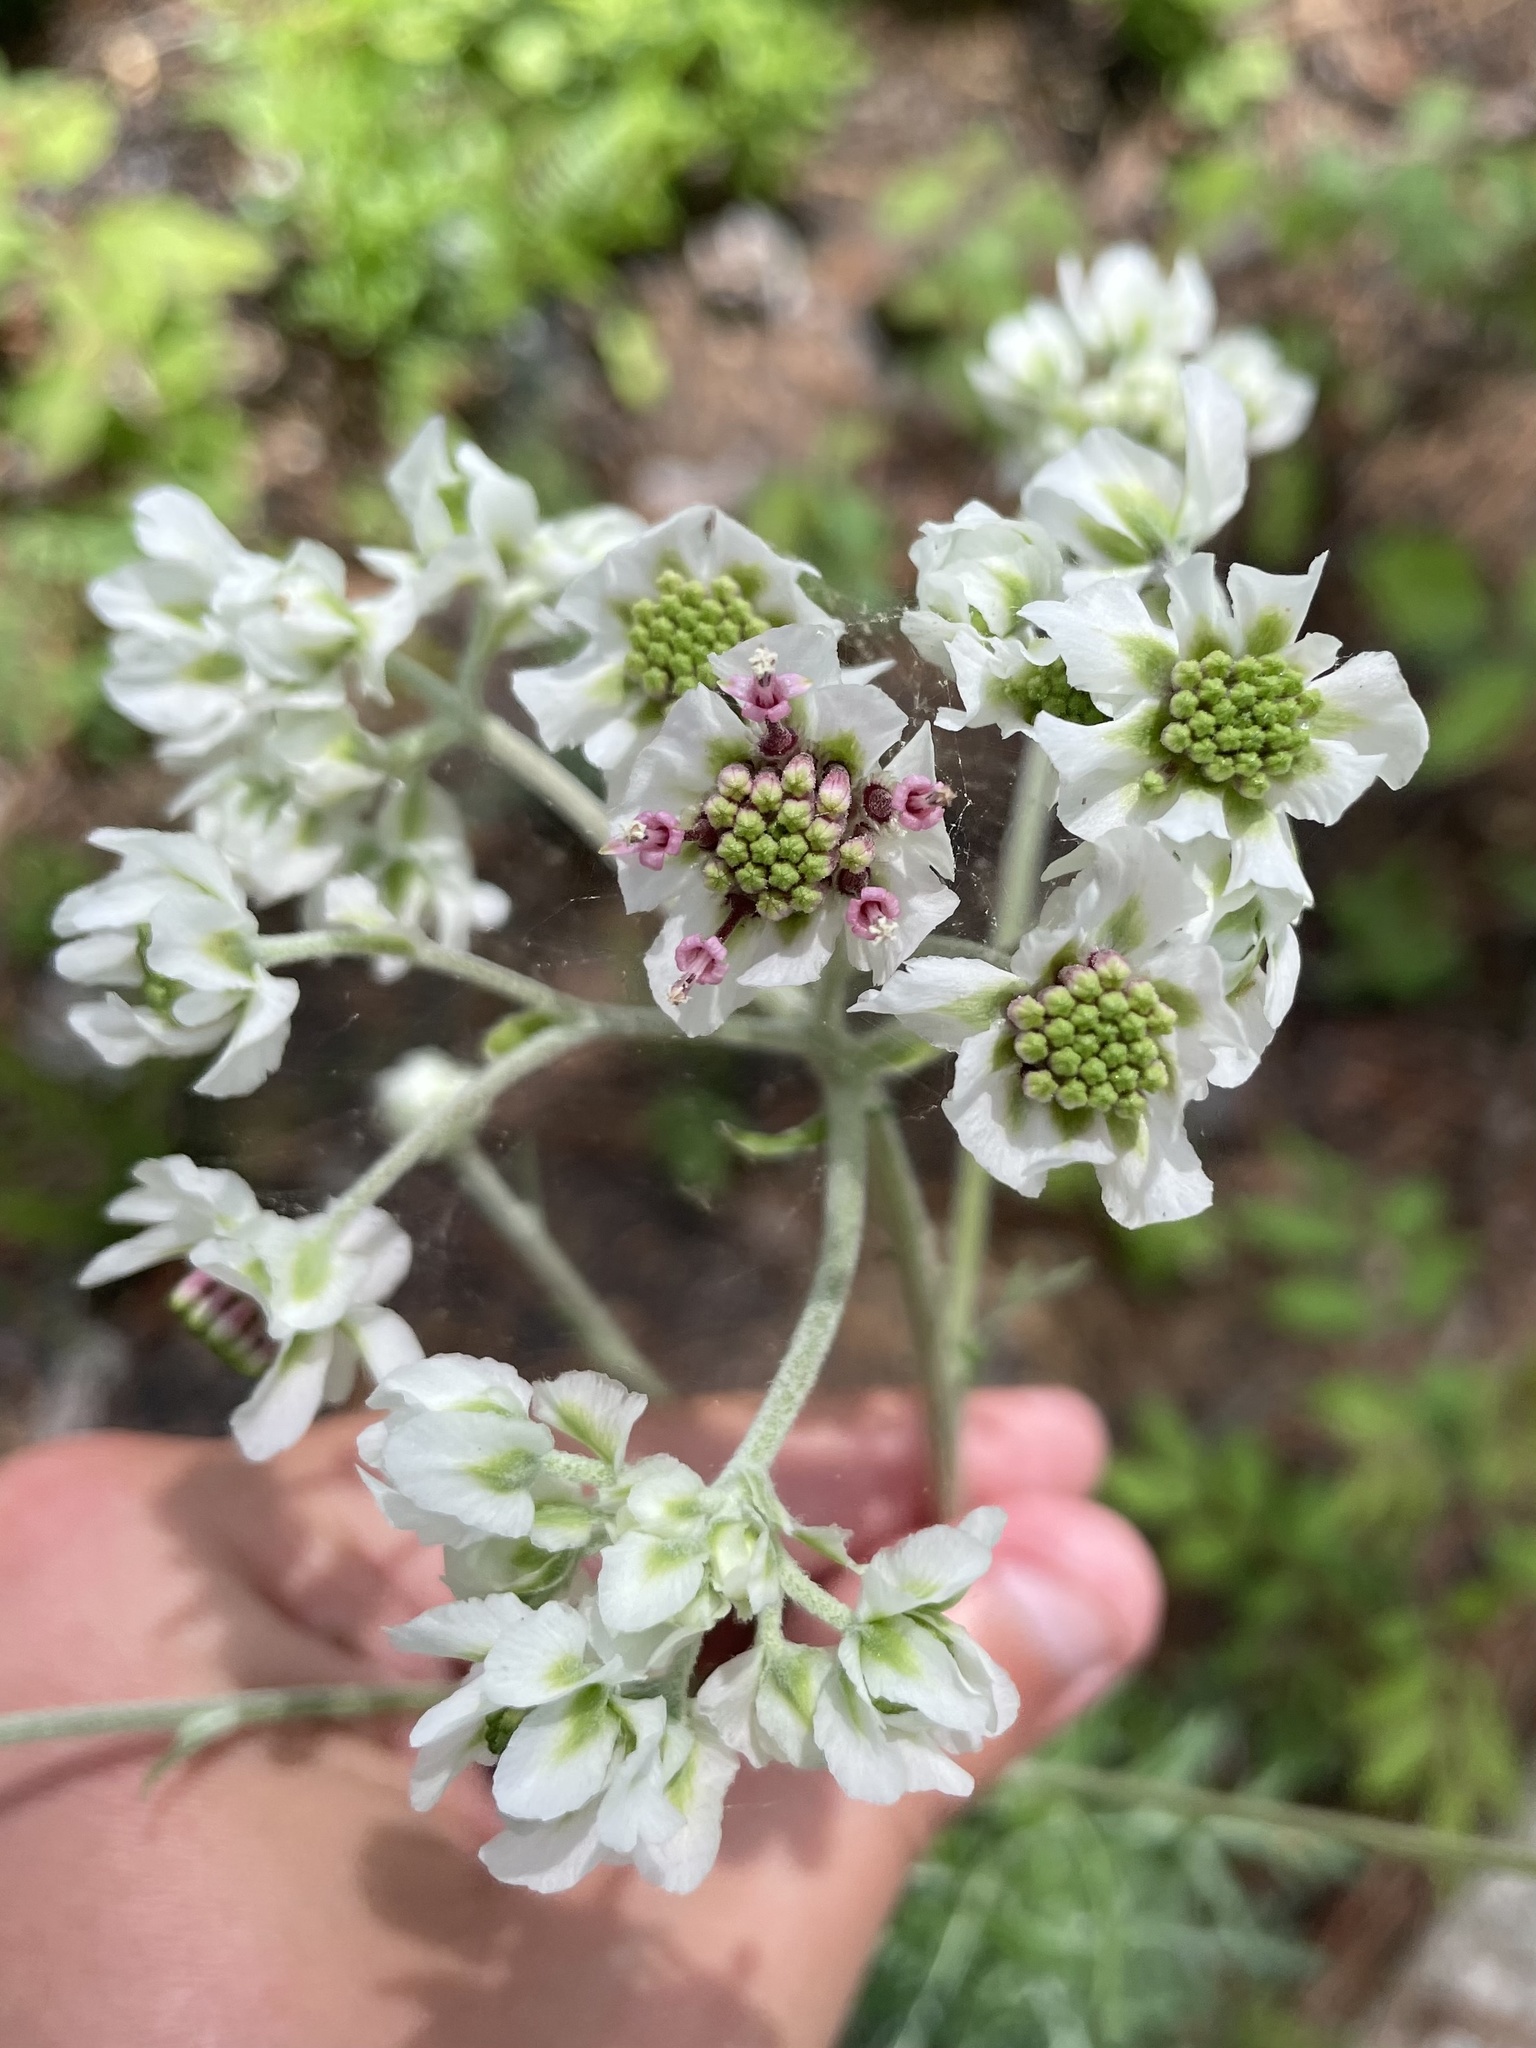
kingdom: Plantae
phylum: Tracheophyta
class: Magnoliopsida
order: Asterales
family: Asteraceae
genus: Hymenopappus
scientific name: Hymenopappus artemisiifolius
